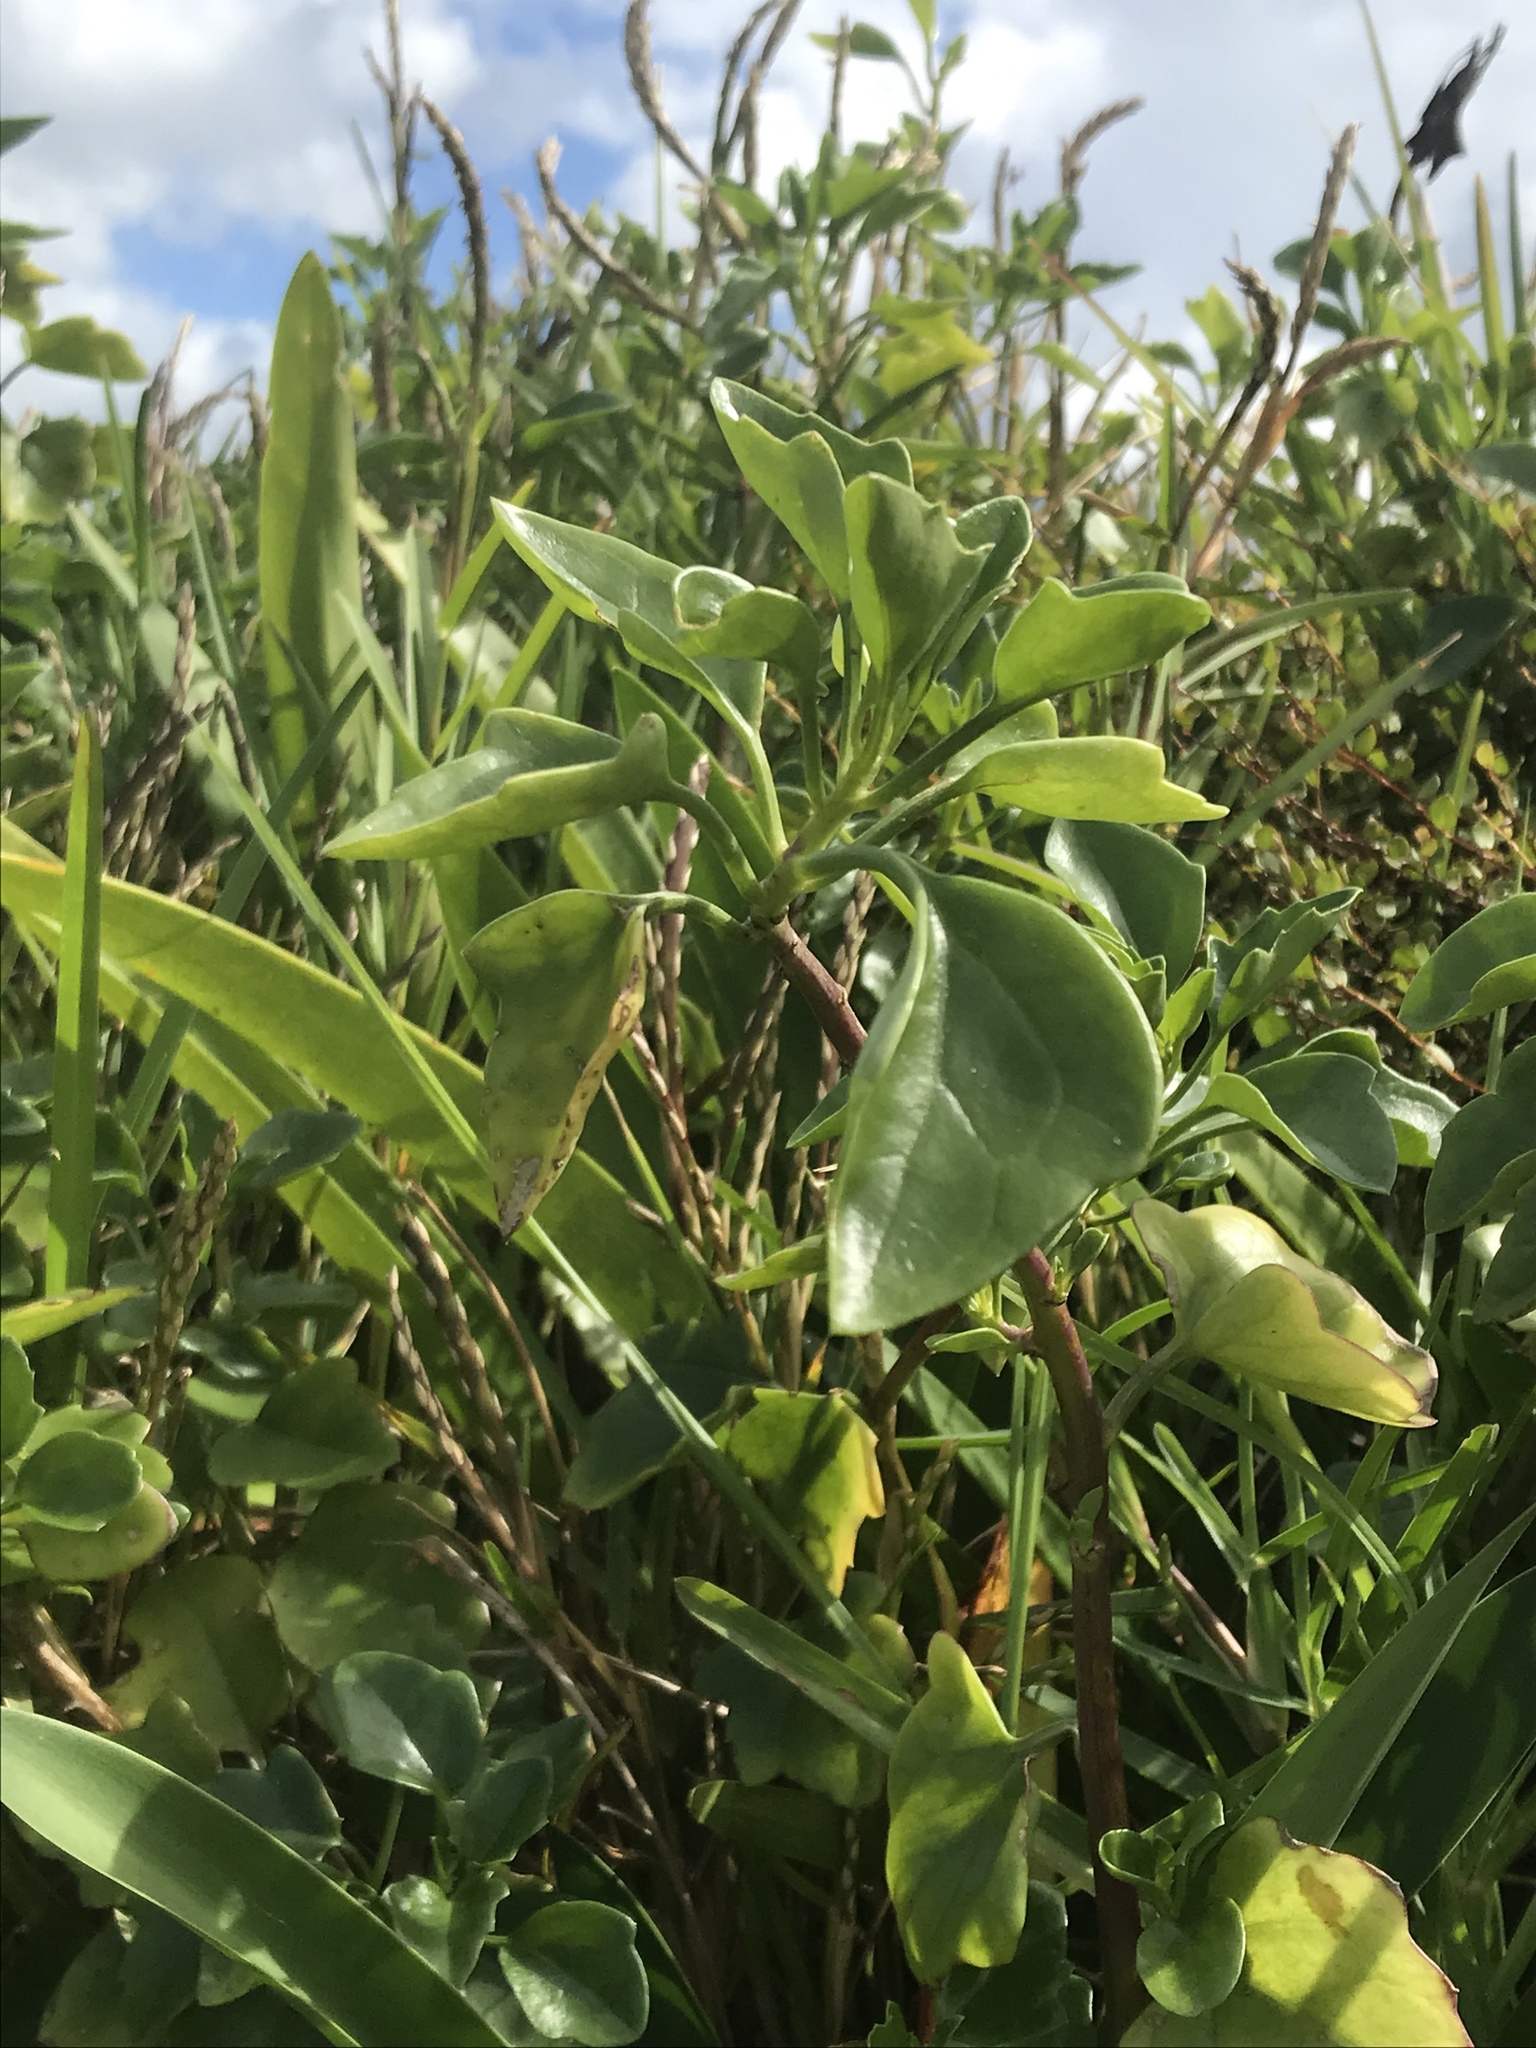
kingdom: Plantae
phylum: Tracheophyta
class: Magnoliopsida
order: Asterales
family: Asteraceae
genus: Senecio
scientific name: Senecio angulatus
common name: Climbing groundsel
